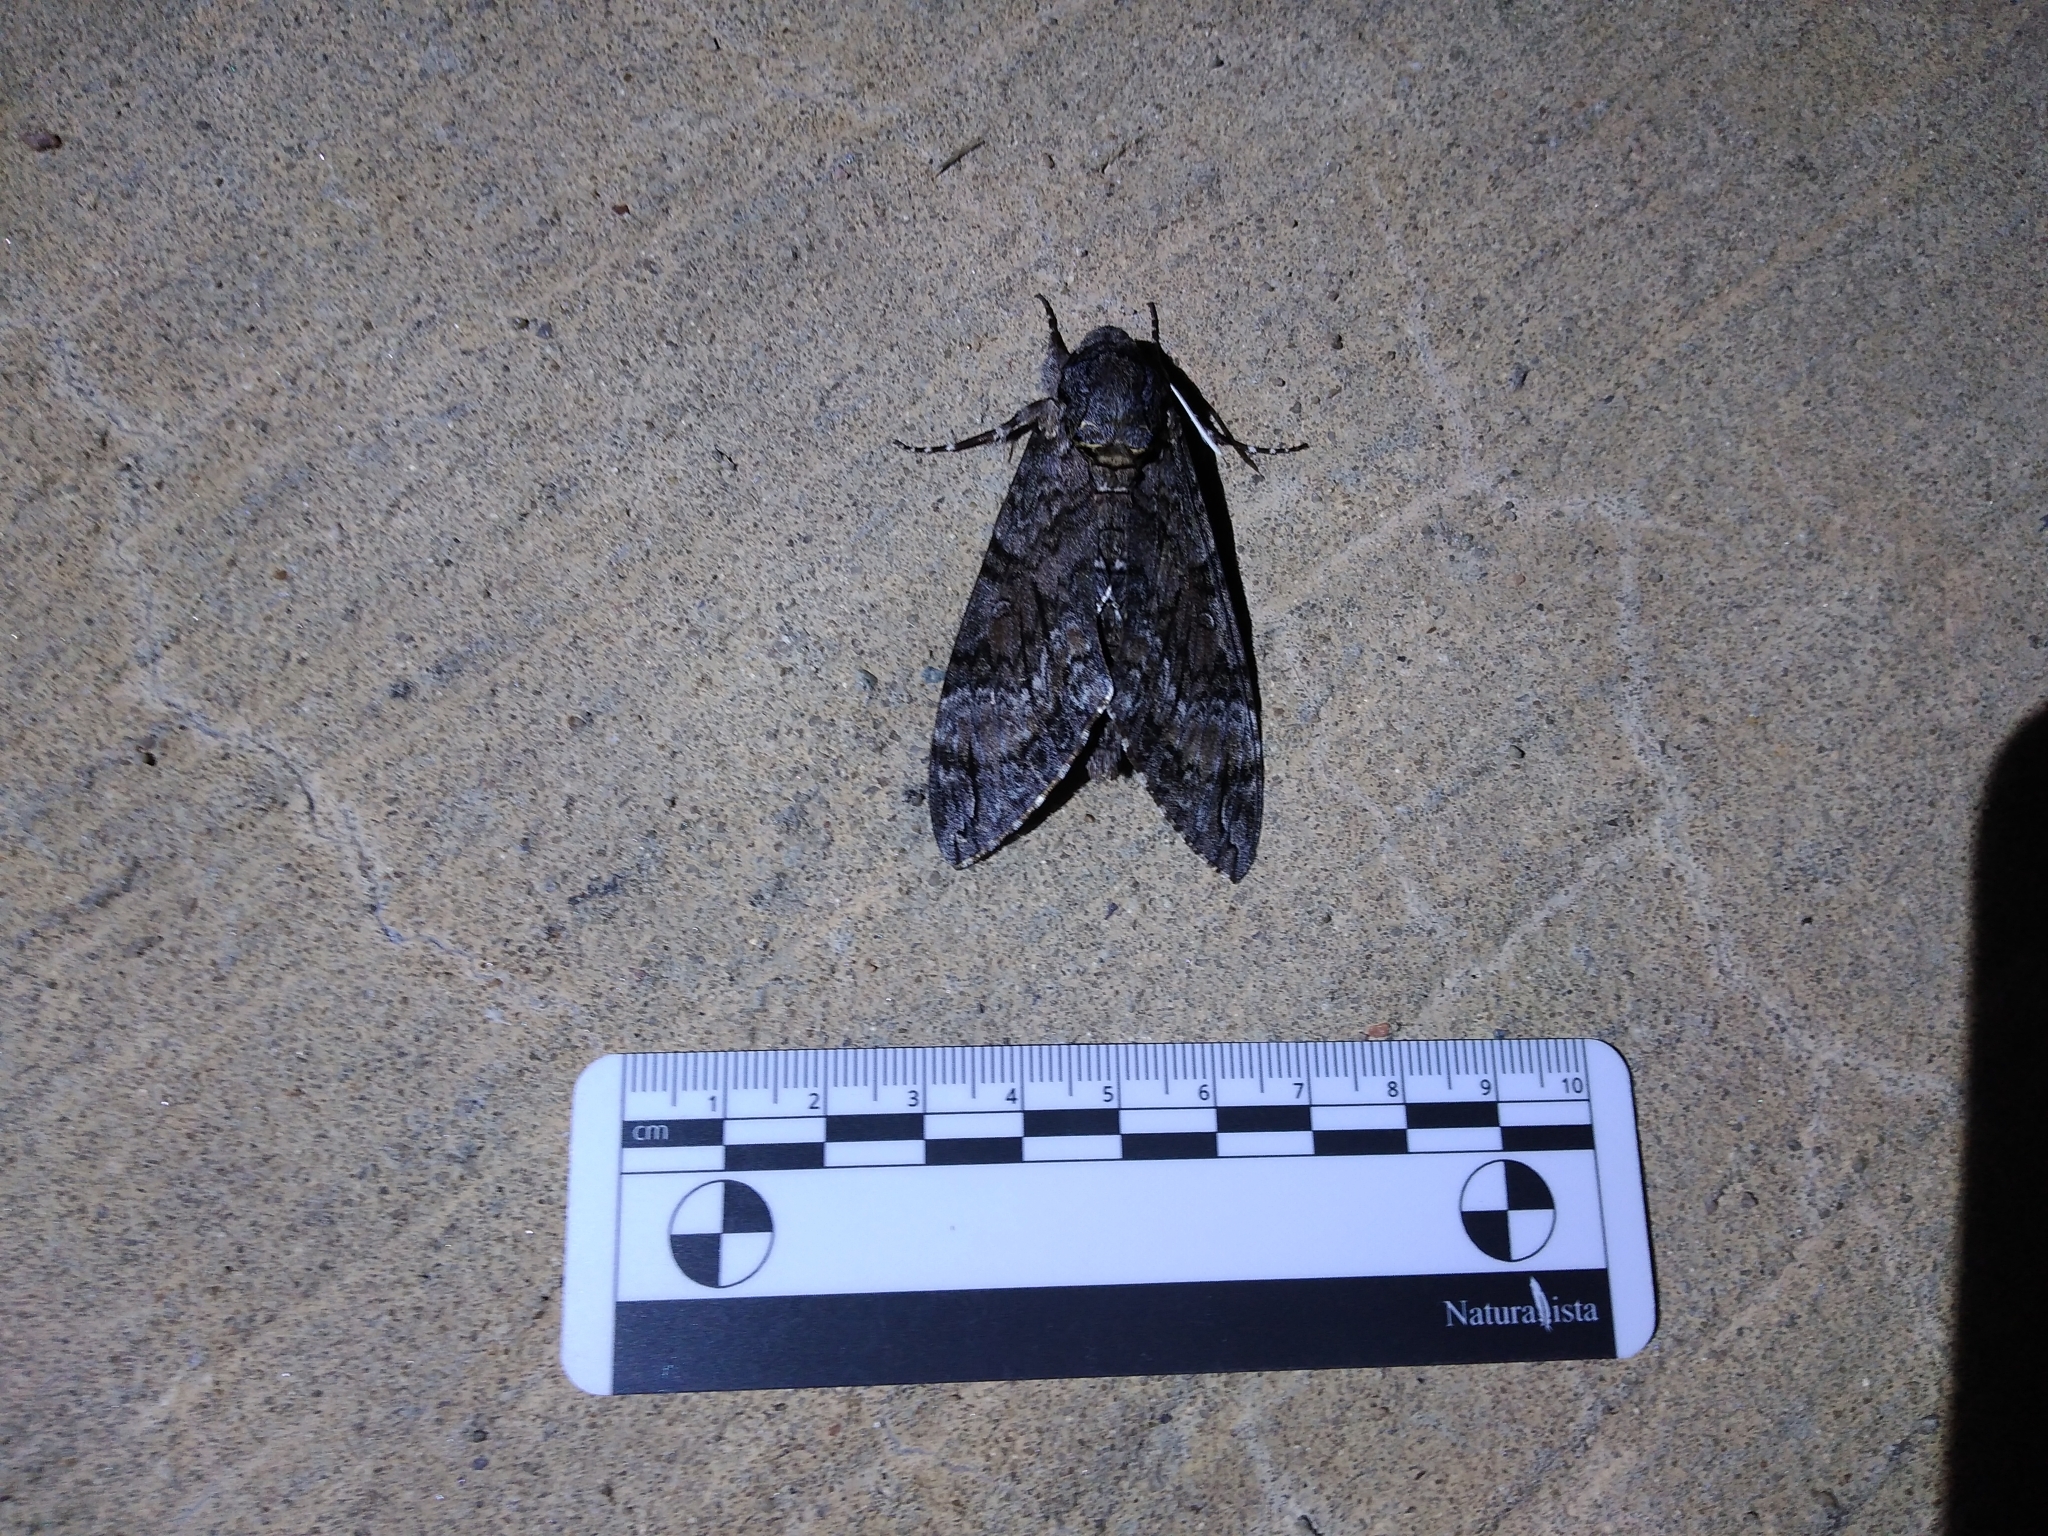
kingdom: Animalia
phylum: Arthropoda
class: Insecta
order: Lepidoptera
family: Sphingidae
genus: Agrius
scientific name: Agrius cingulata
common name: Pink-spotted hawkmoth
